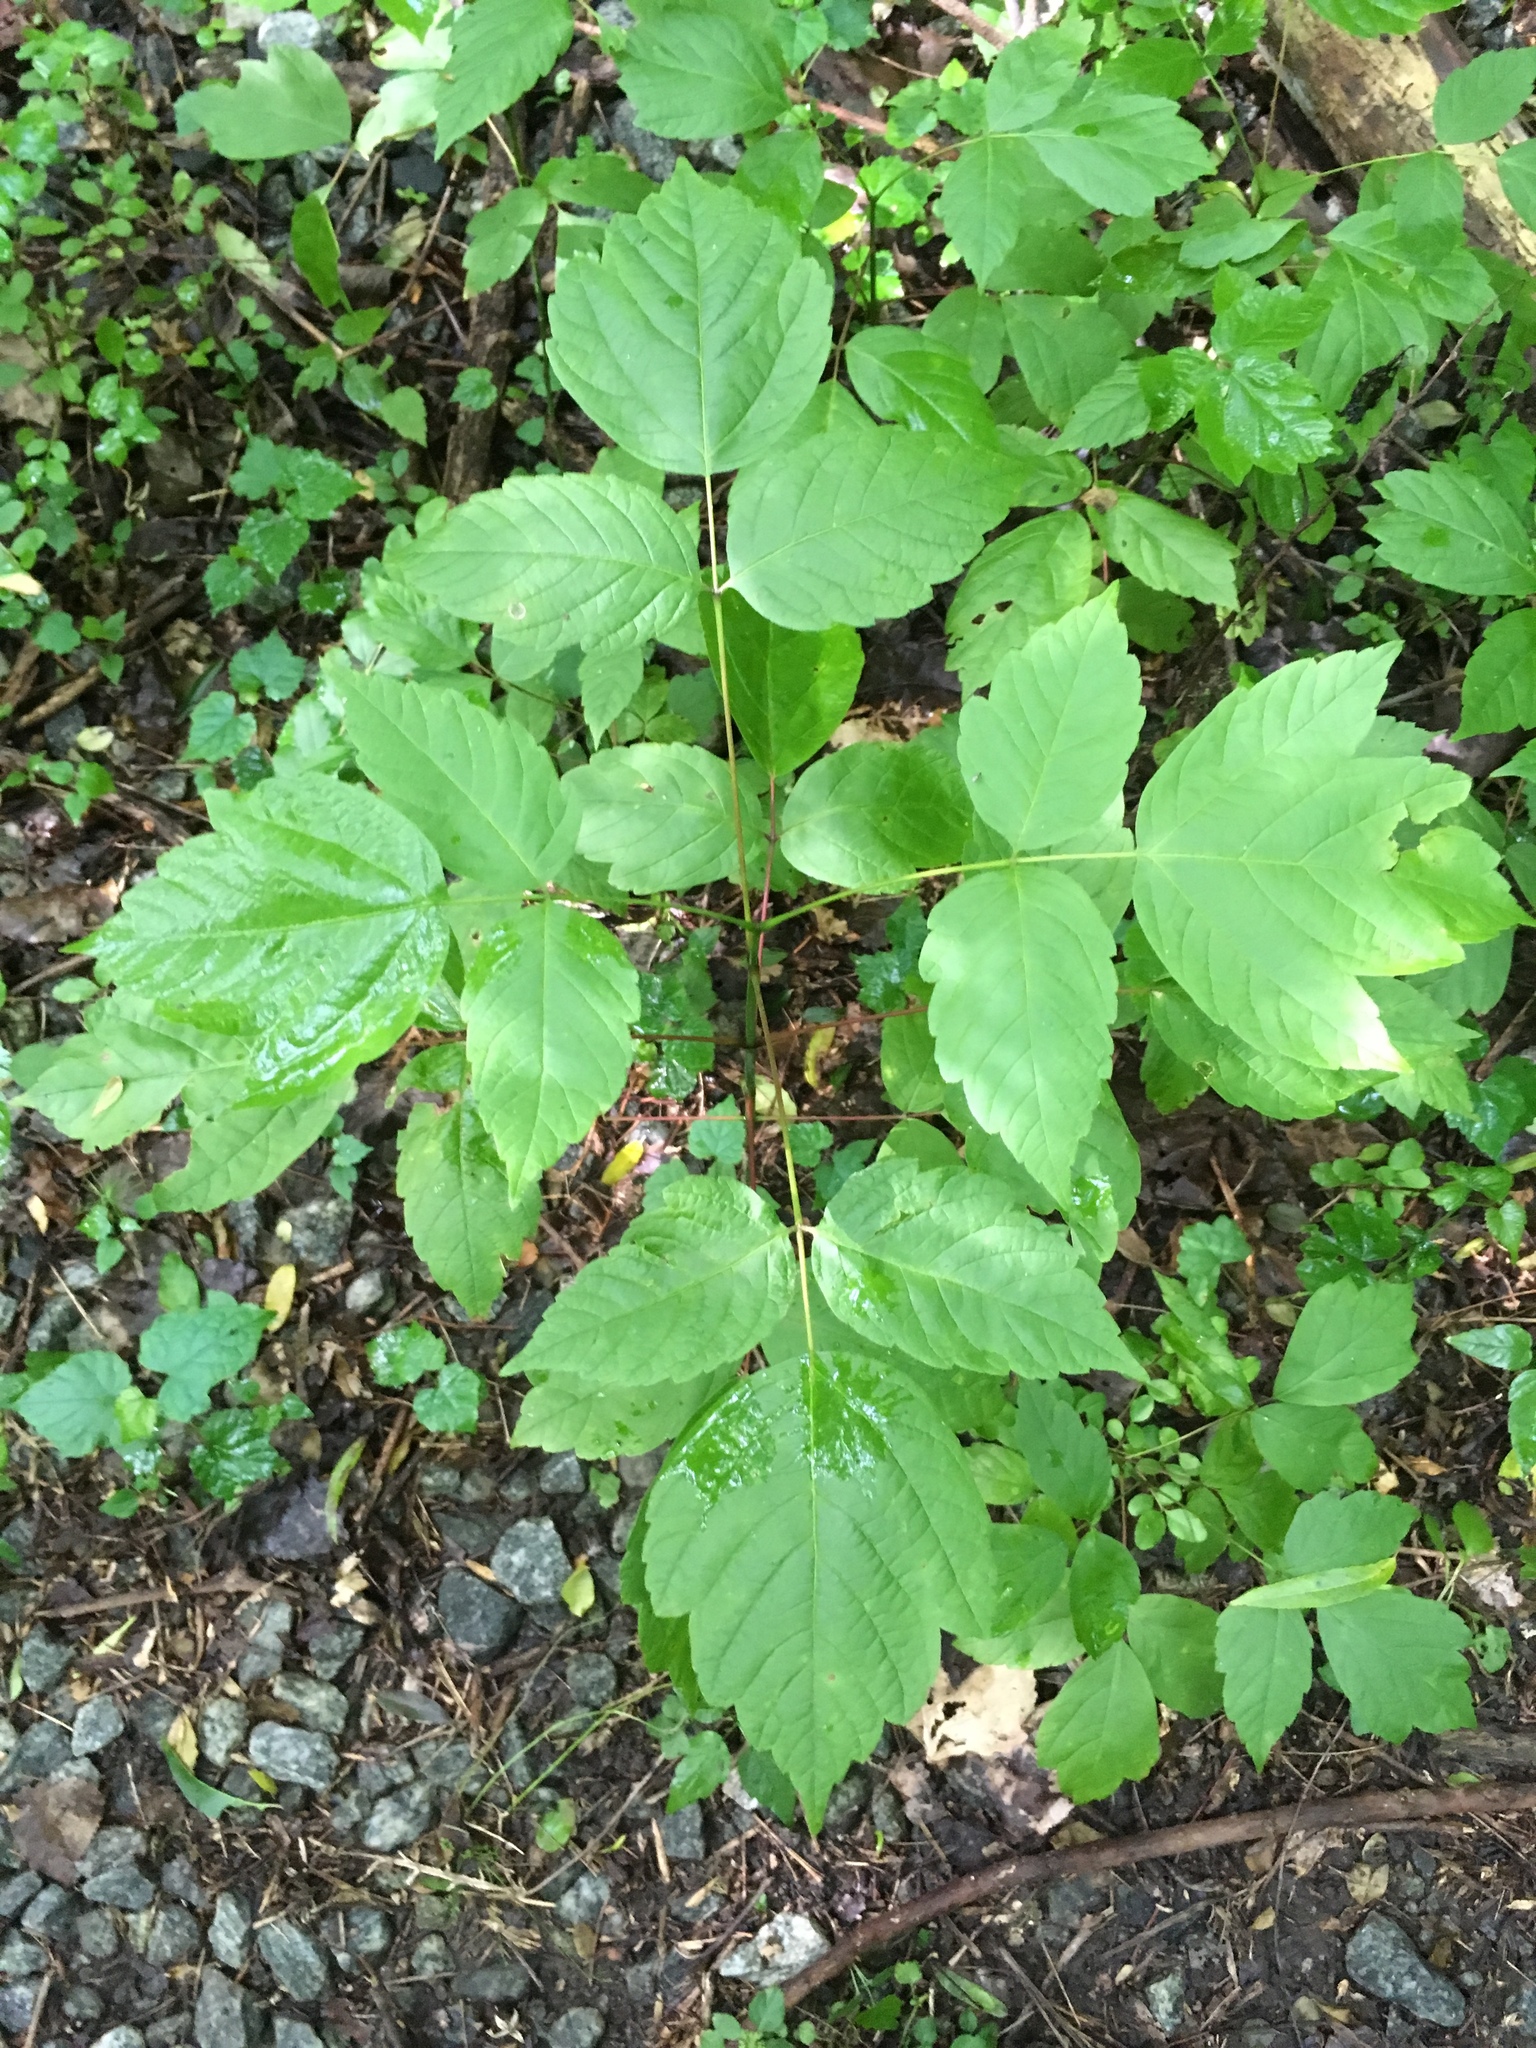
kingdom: Plantae
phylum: Tracheophyta
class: Magnoliopsida
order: Sapindales
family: Sapindaceae
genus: Acer
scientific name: Acer negundo
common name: Ashleaf maple
